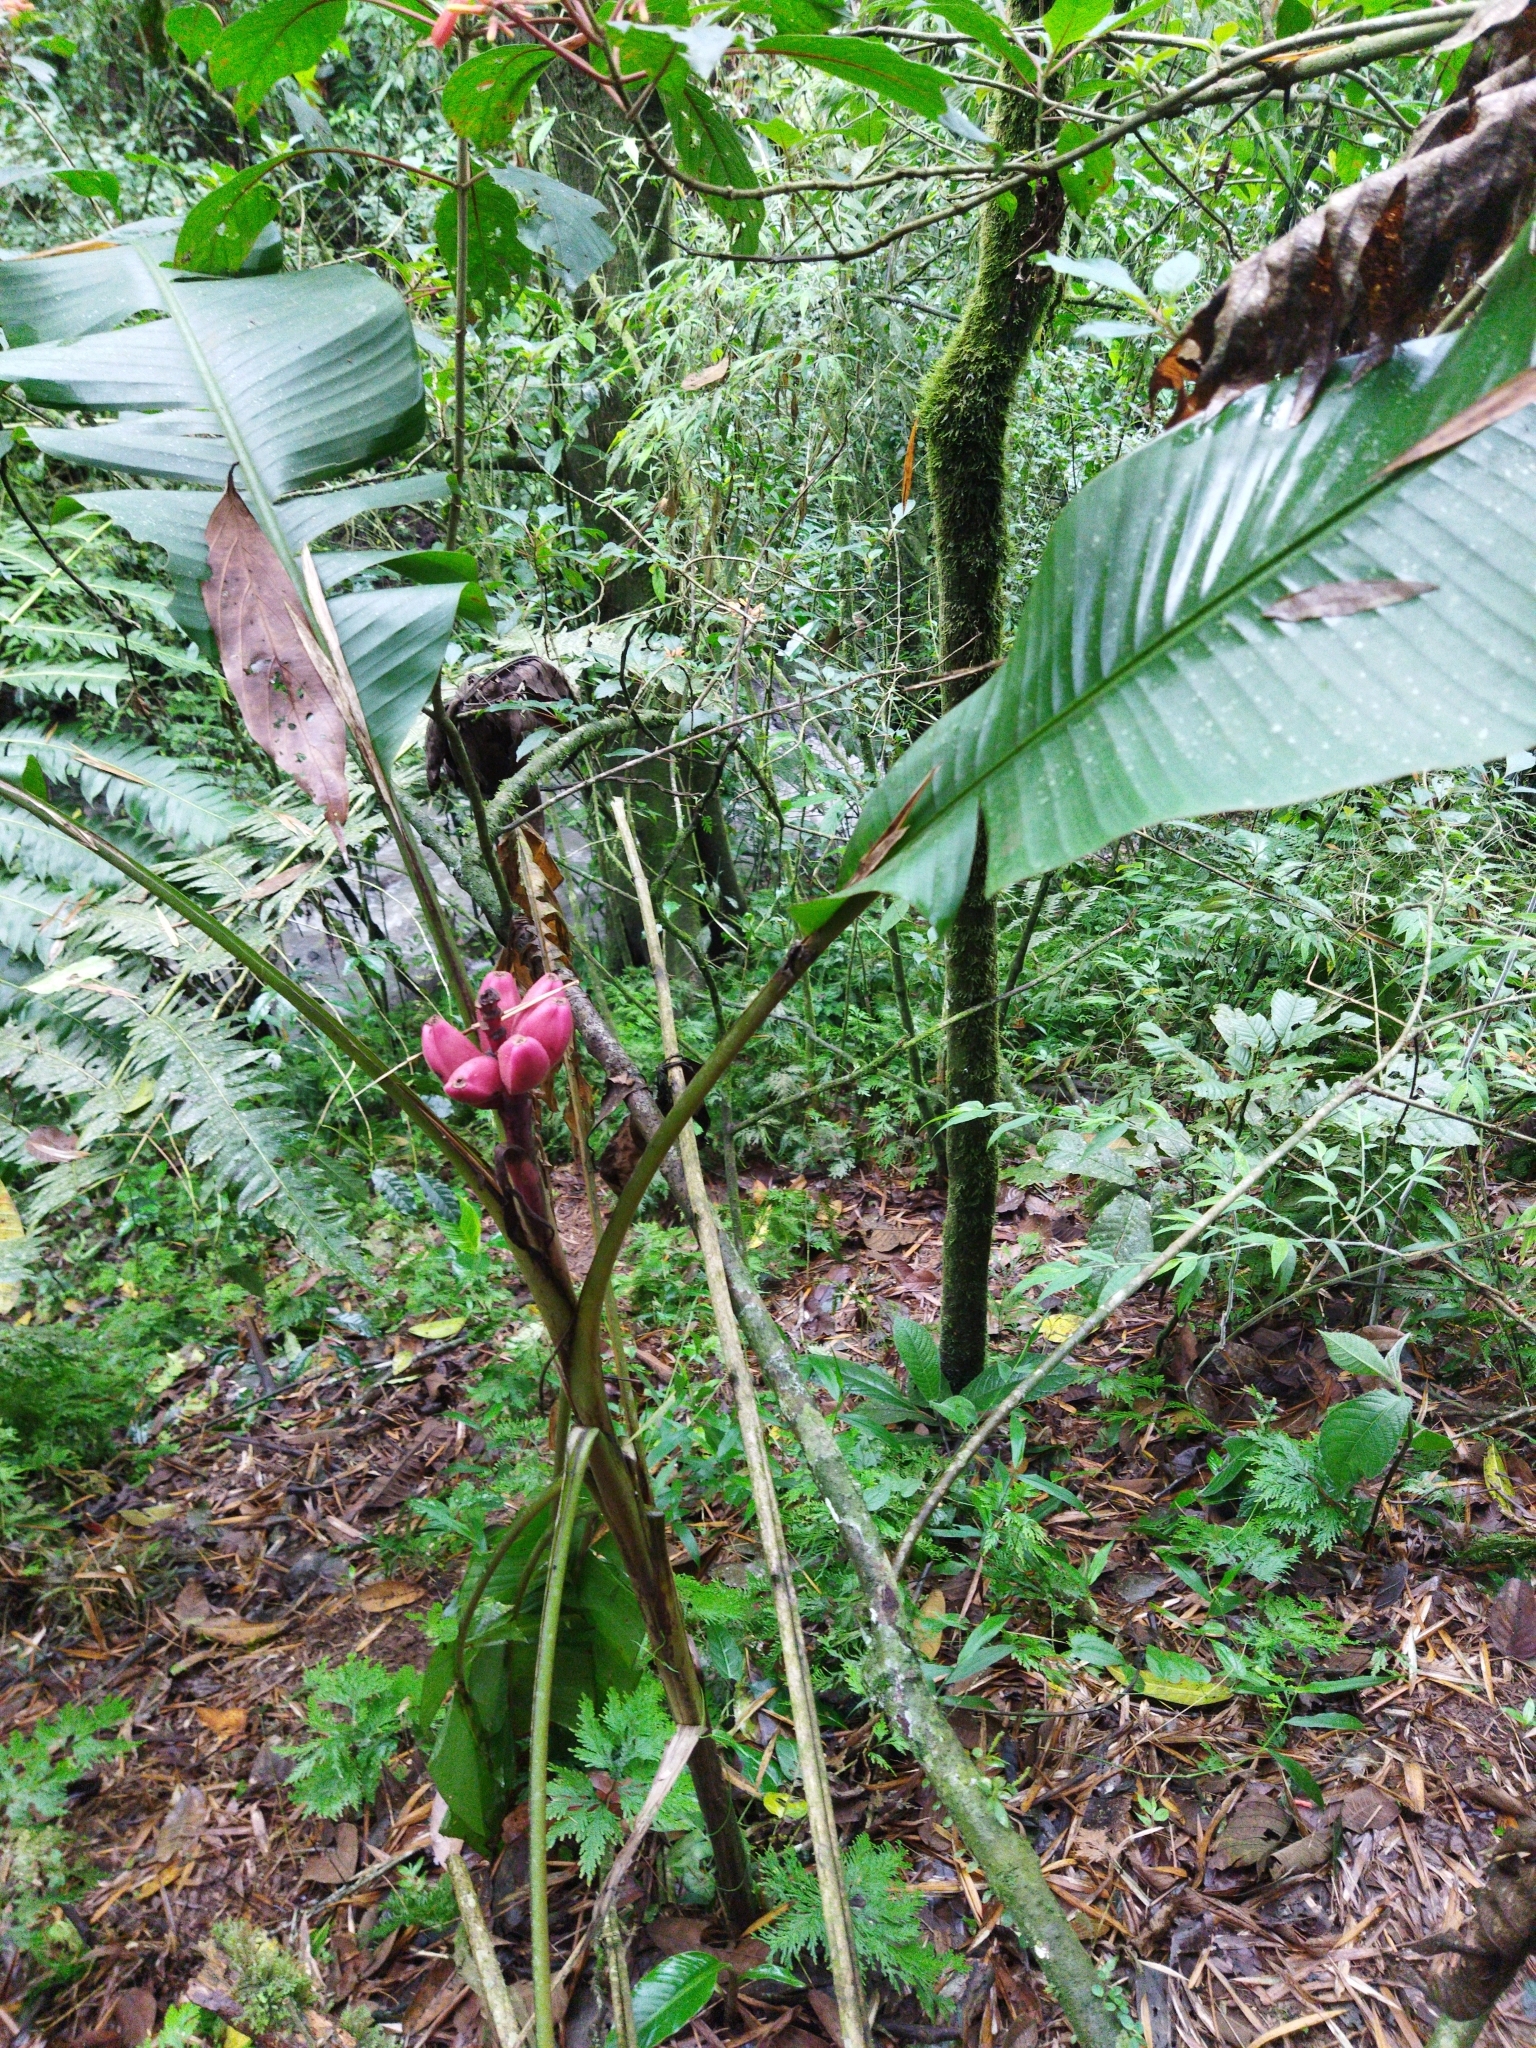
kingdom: Plantae
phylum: Tracheophyta
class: Liliopsida
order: Zingiberales
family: Musaceae
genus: Musa
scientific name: Musa velutina
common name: Pink velvet banana
